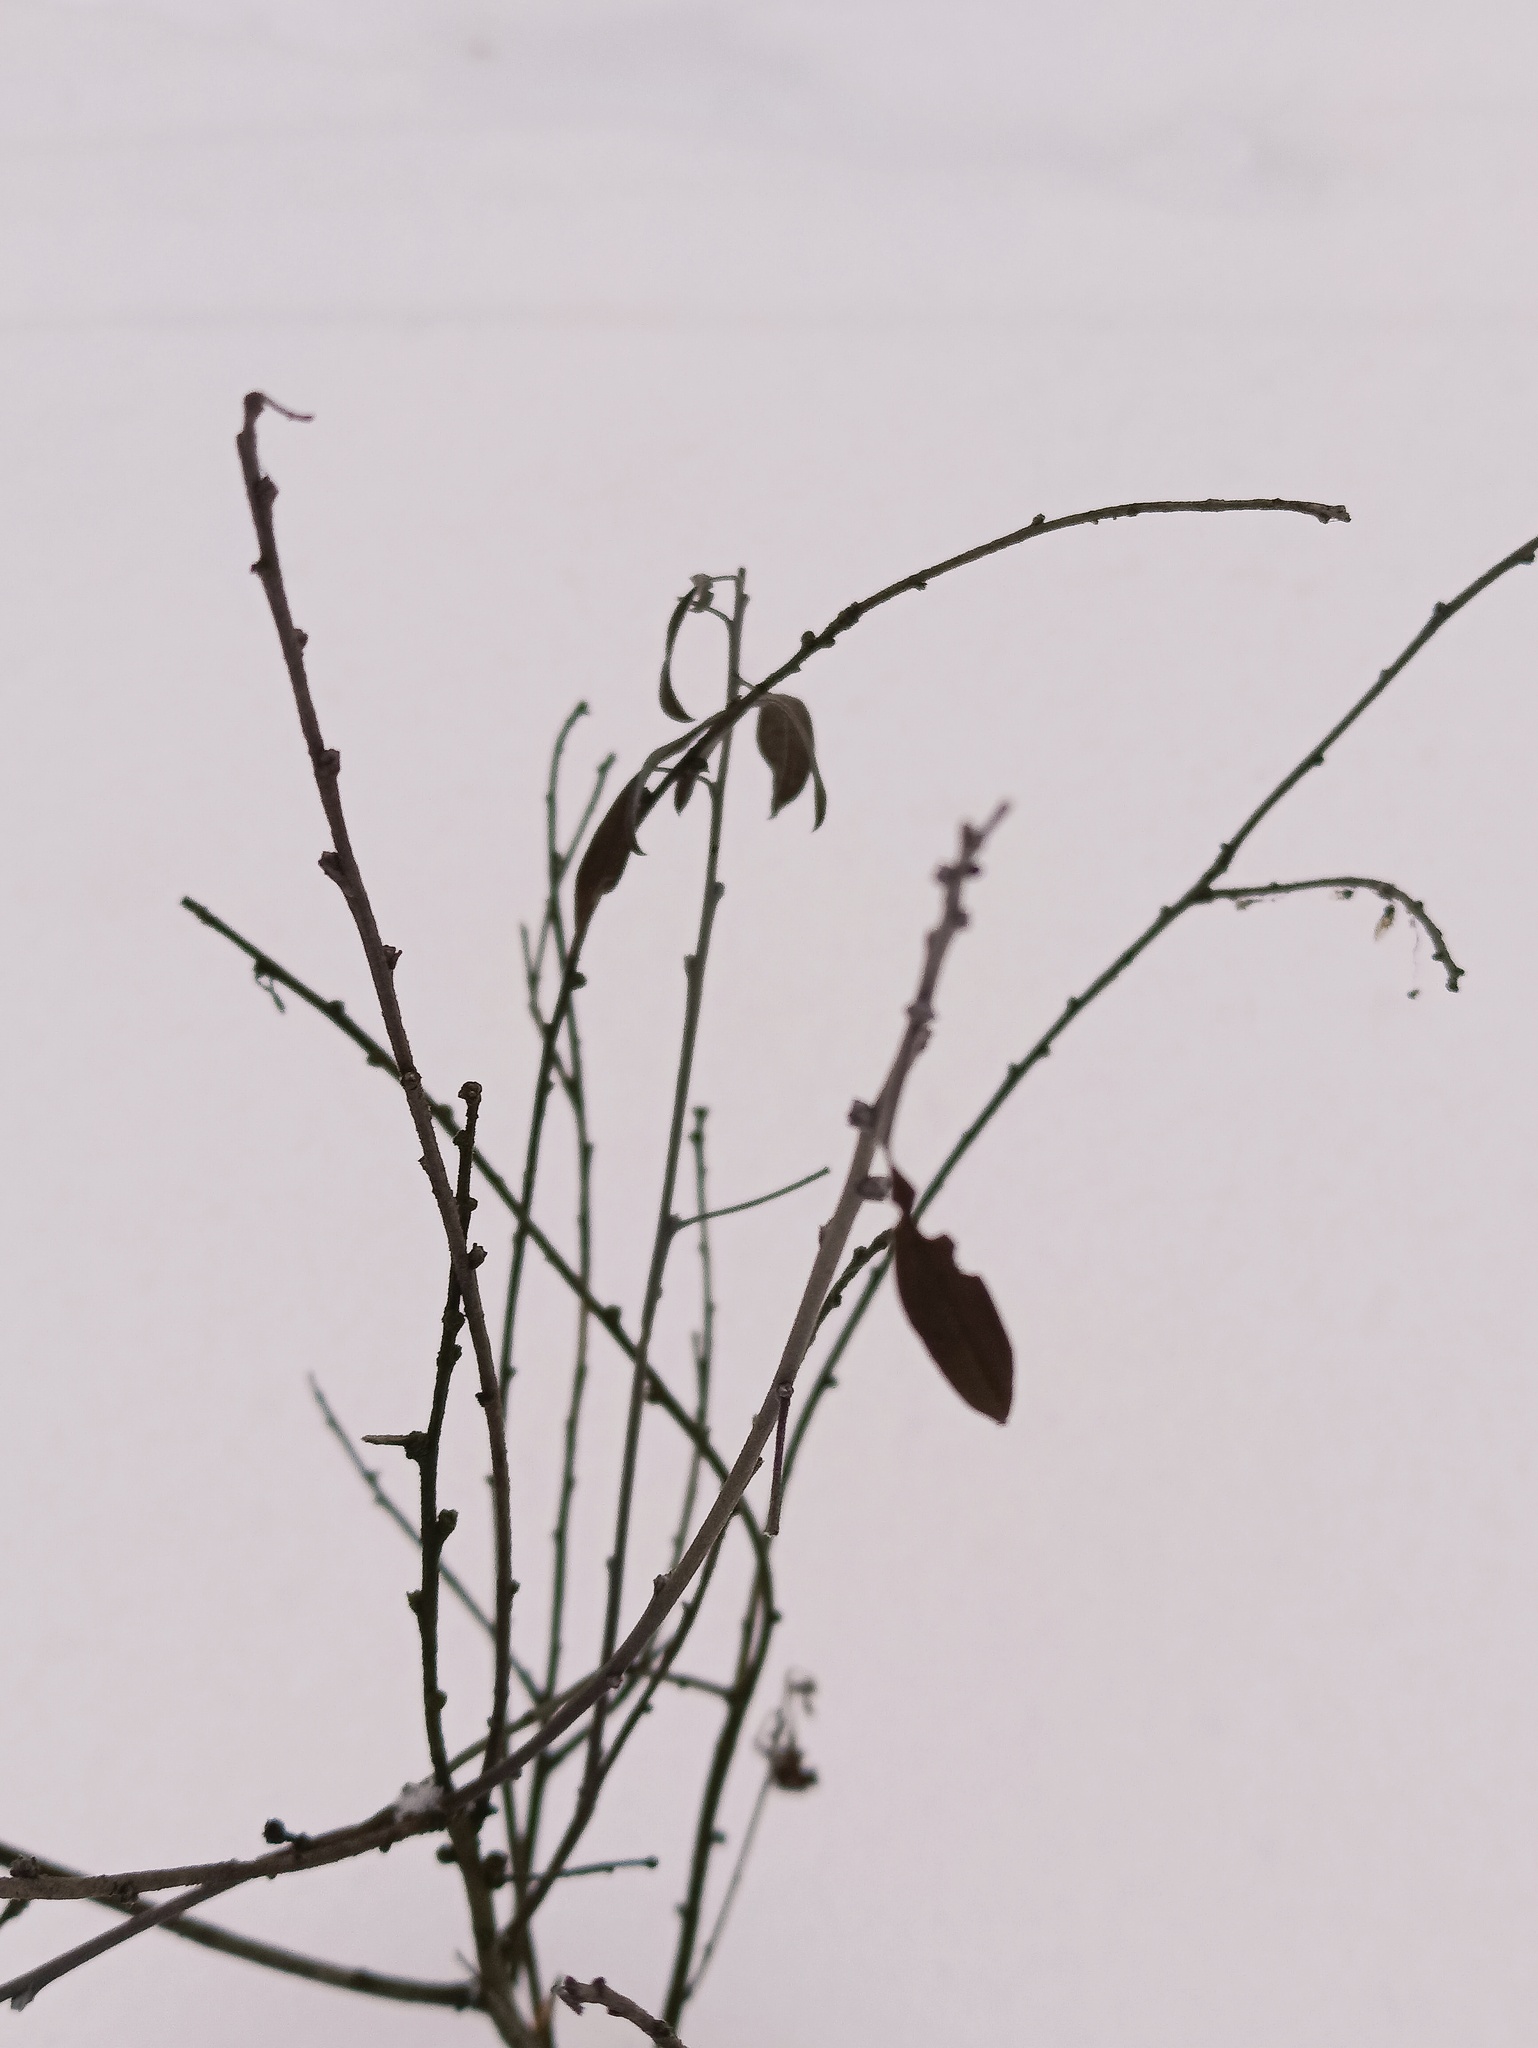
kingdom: Plantae
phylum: Tracheophyta
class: Magnoliopsida
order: Fabales
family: Fabaceae
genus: Chamaecytisus
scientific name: Chamaecytisus ruthenicus
